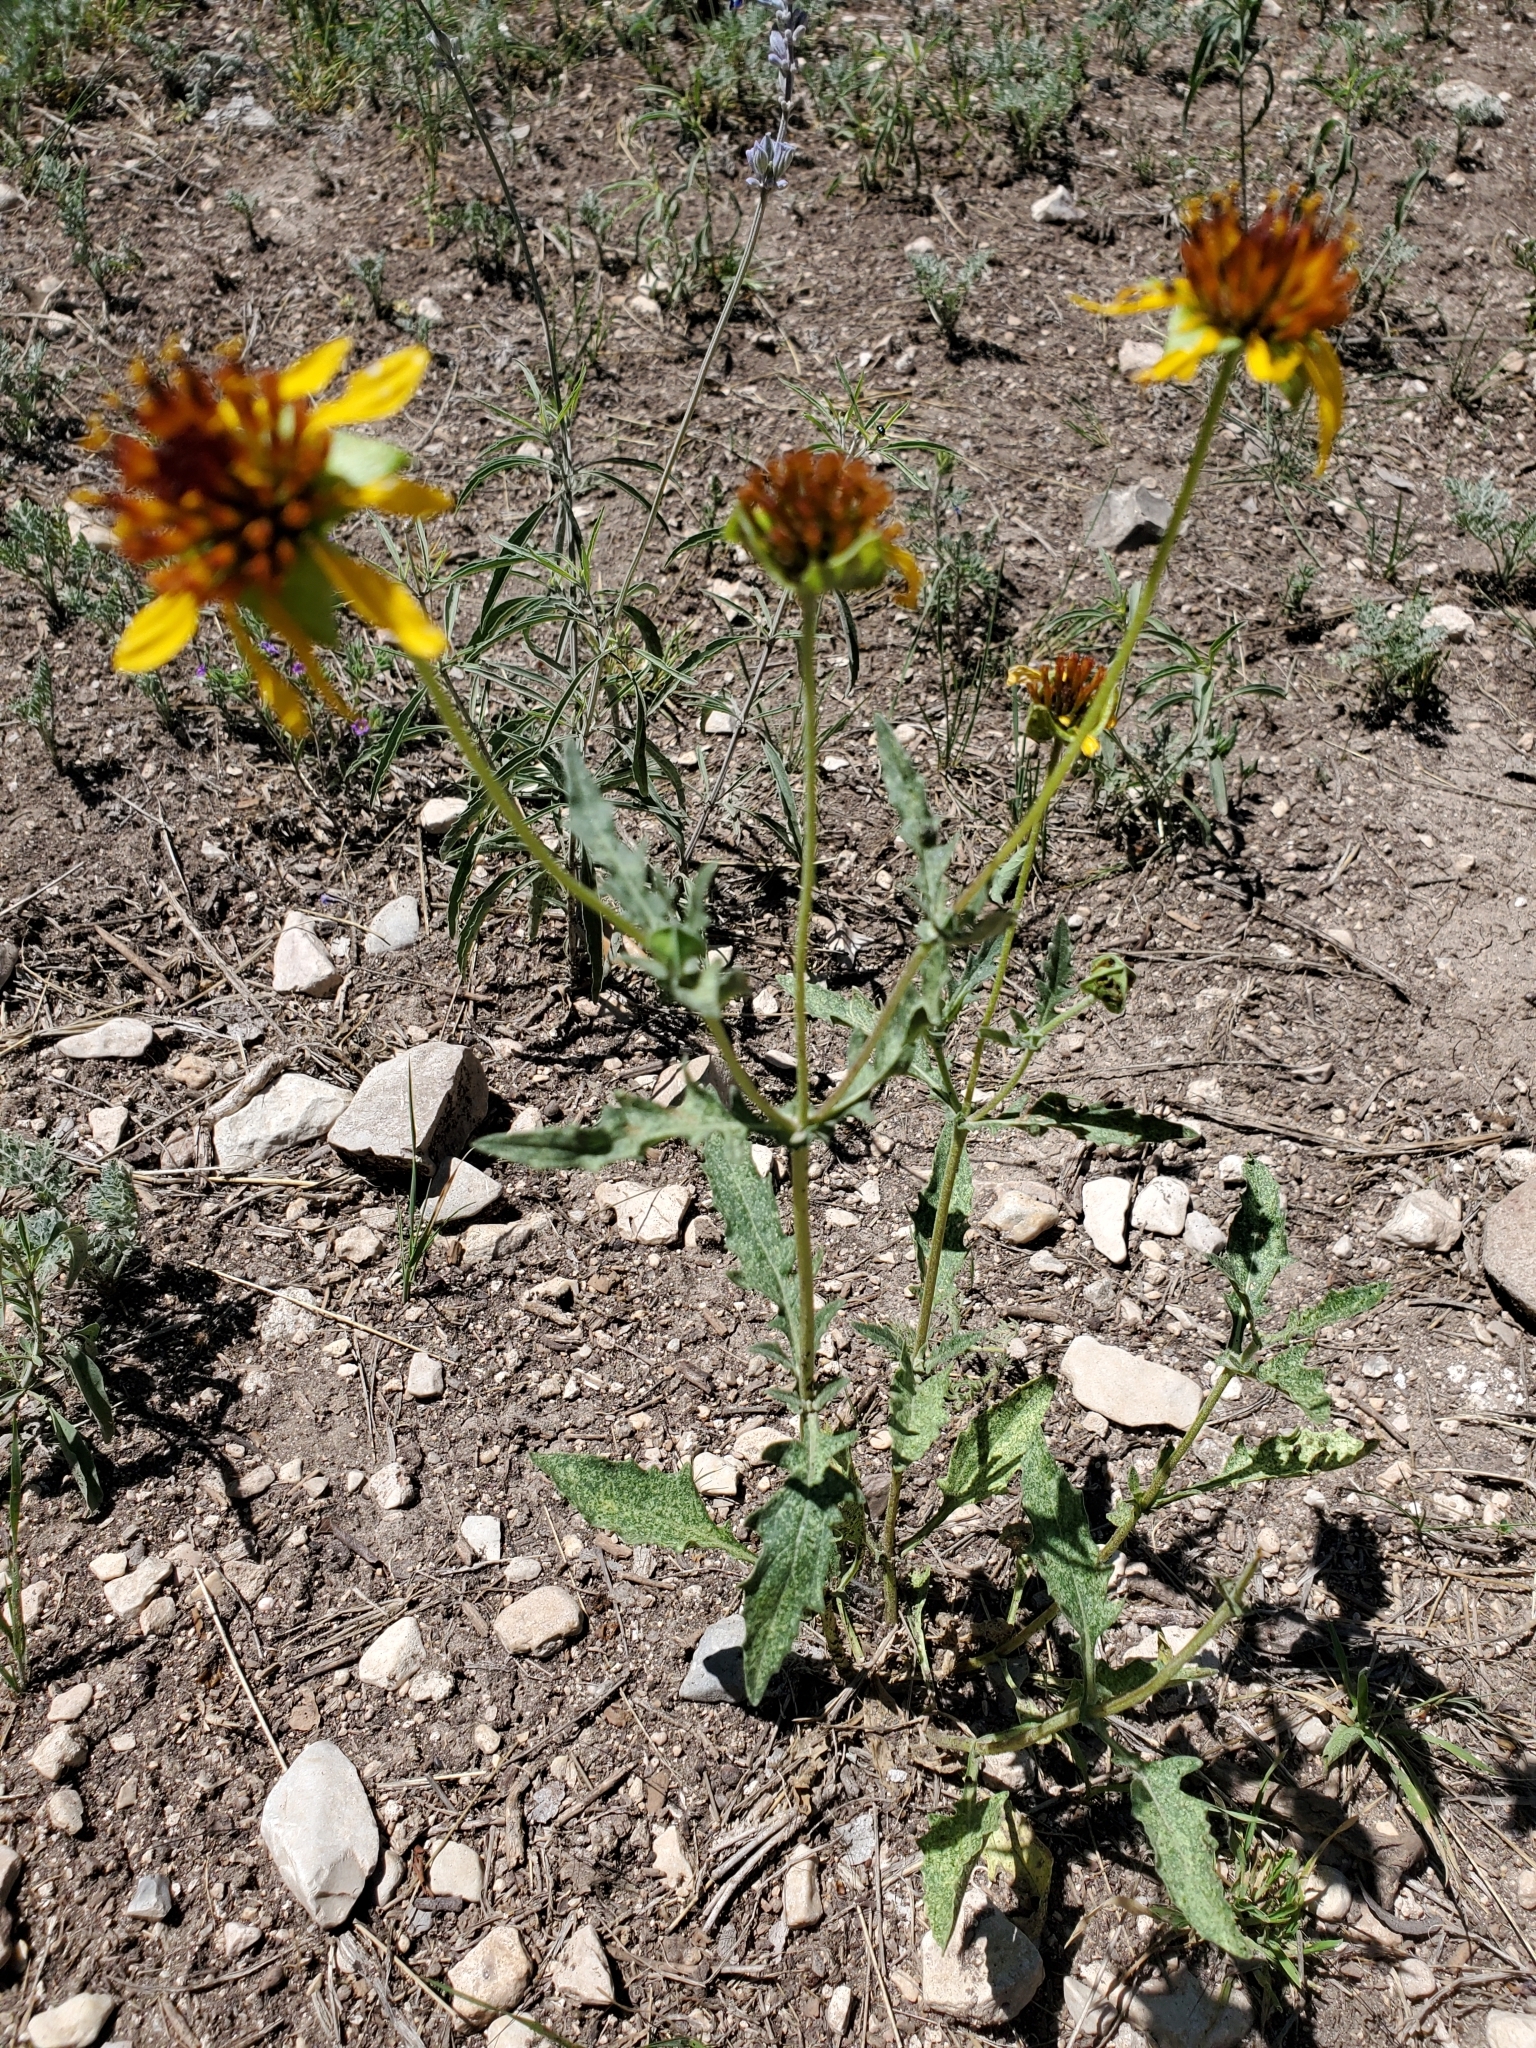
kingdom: Plantae
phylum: Tracheophyta
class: Magnoliopsida
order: Asterales
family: Asteraceae
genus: Tetragonotheca
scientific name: Tetragonotheca texana
